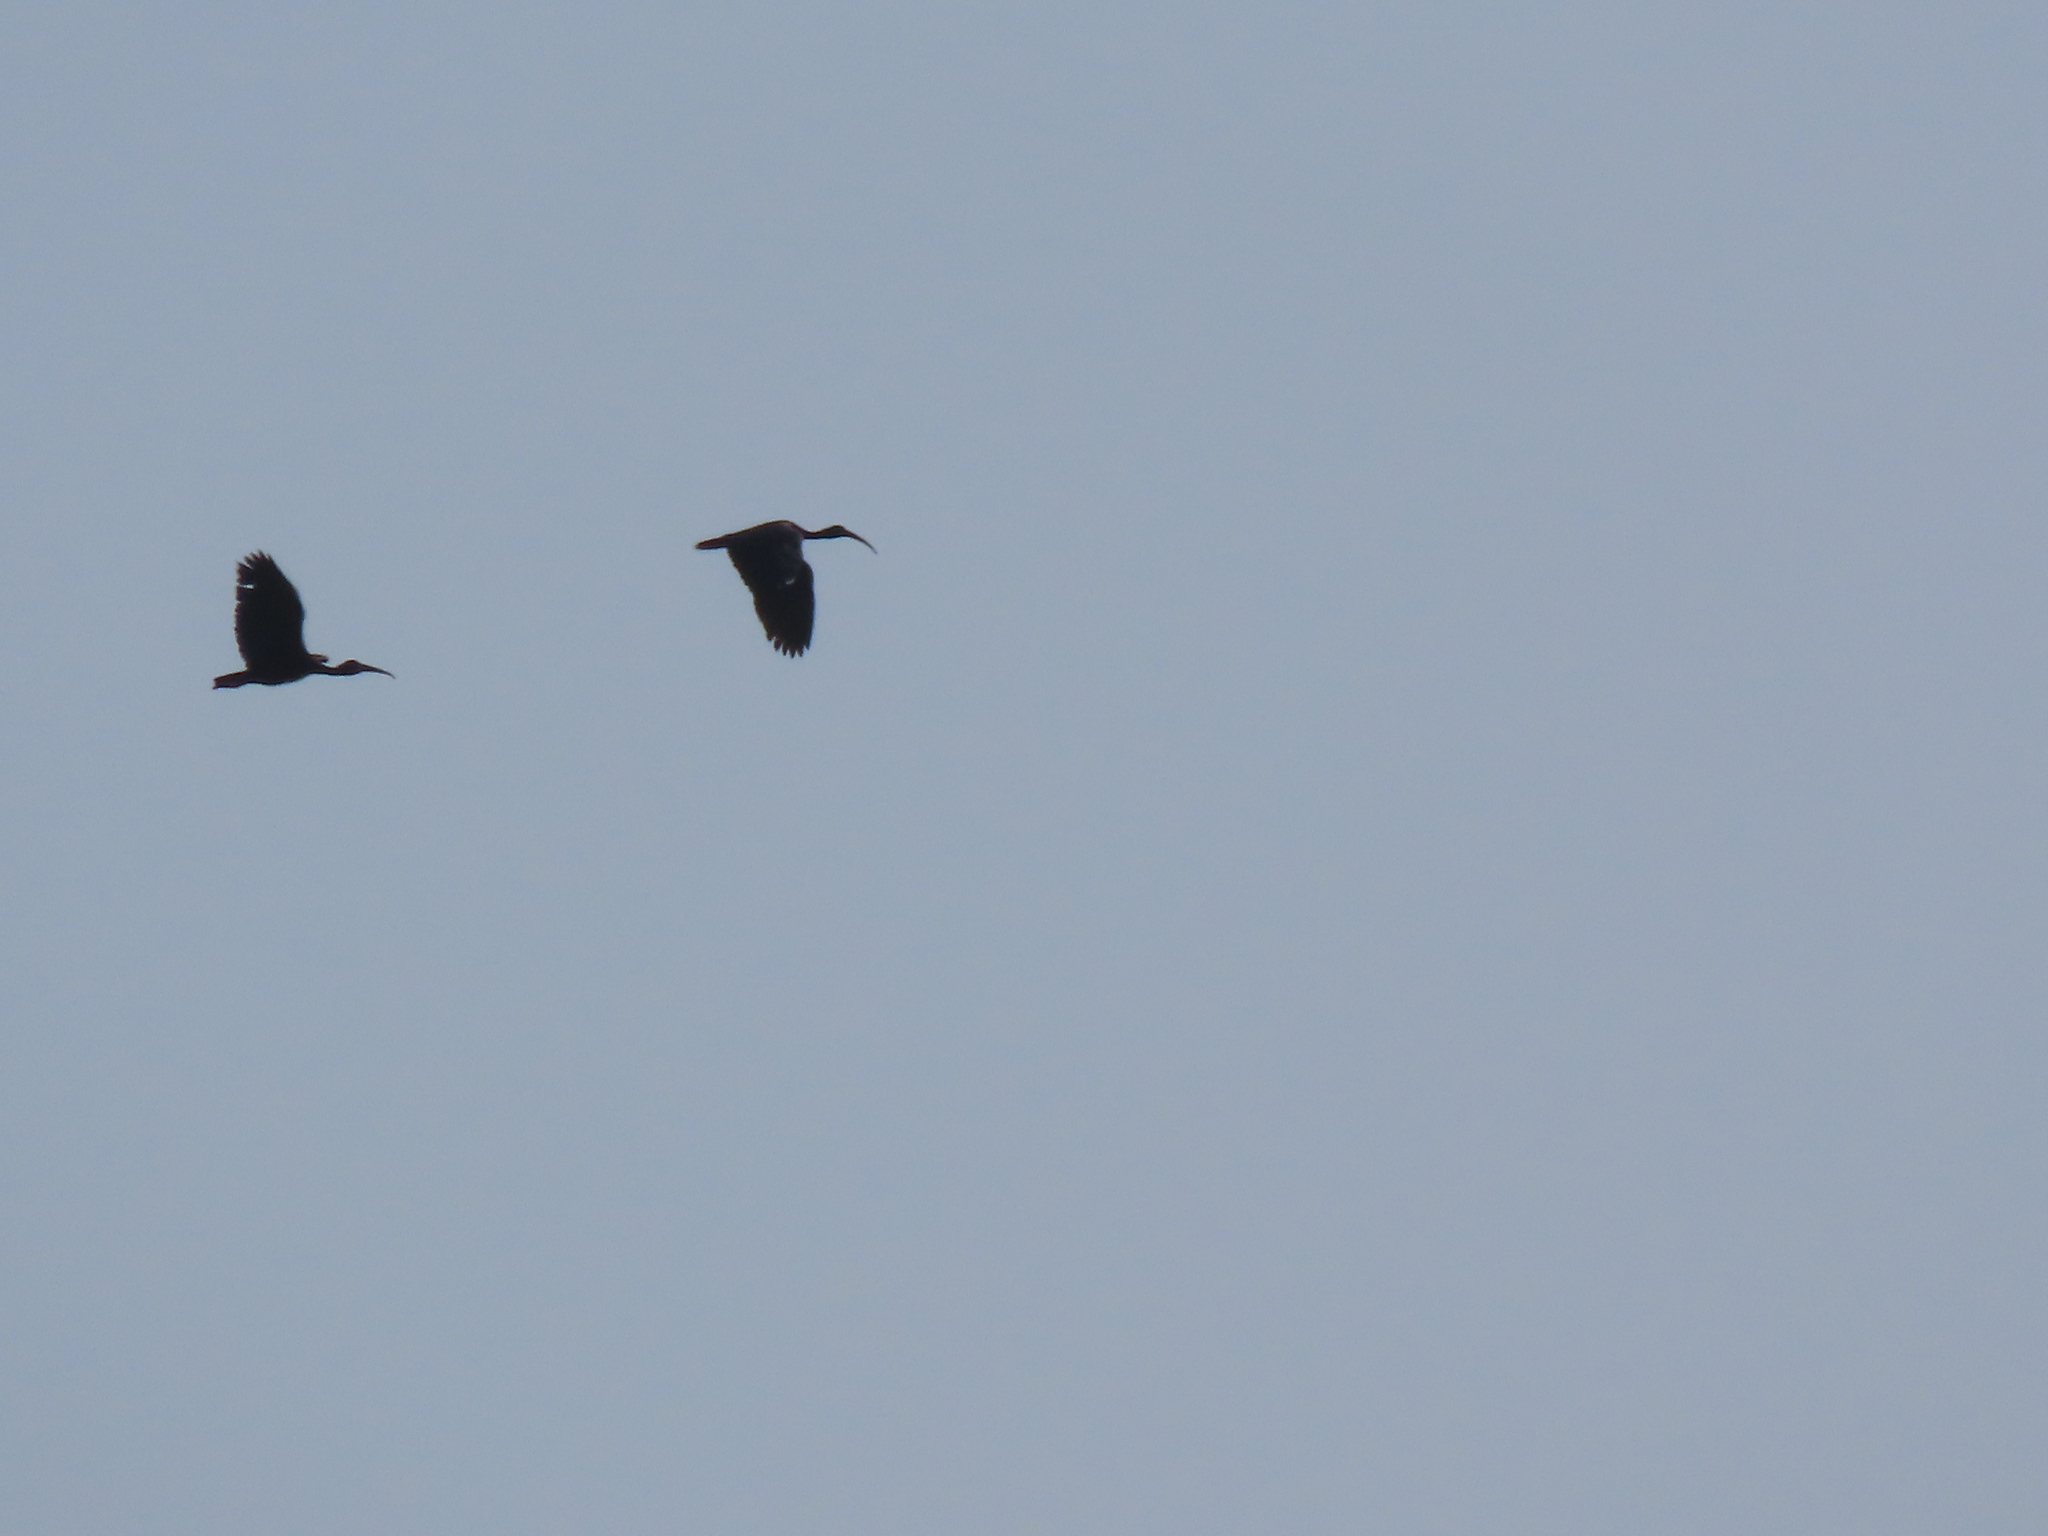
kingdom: Animalia
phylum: Chordata
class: Aves
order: Pelecaniformes
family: Threskiornithidae
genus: Phimosus
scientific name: Phimosus infuscatus
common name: Bare-faced ibis
